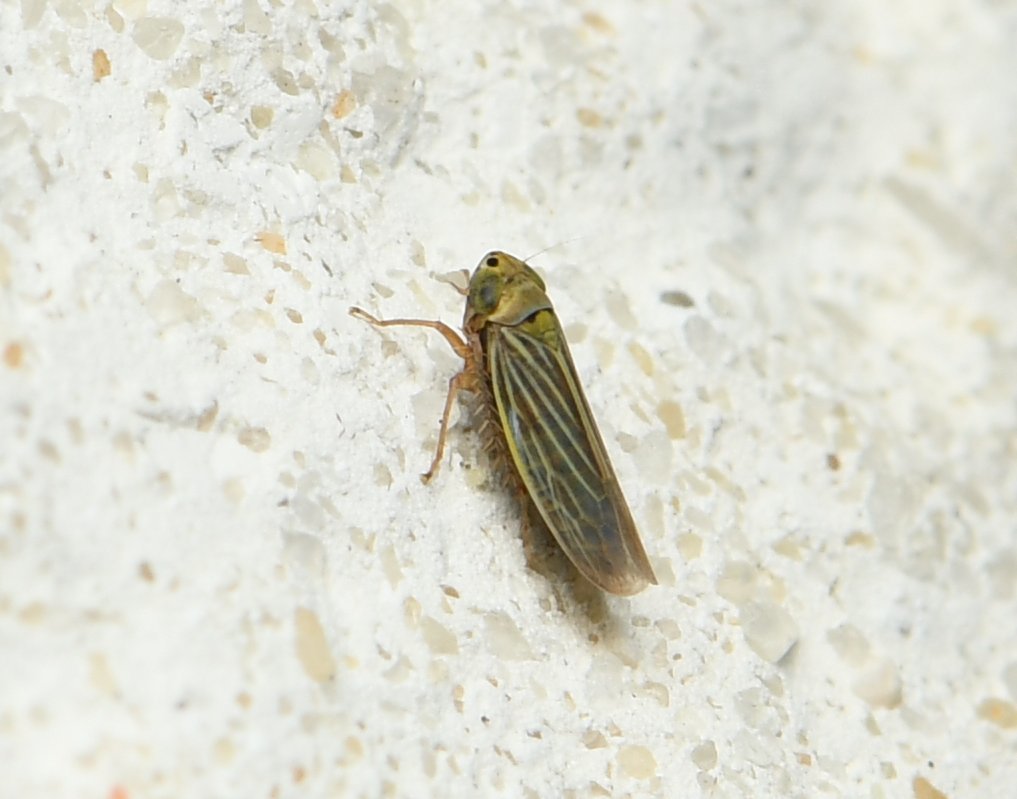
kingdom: Animalia
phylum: Arthropoda
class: Insecta
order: Hemiptera
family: Cicadellidae
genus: Graminella
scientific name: Graminella cognita
